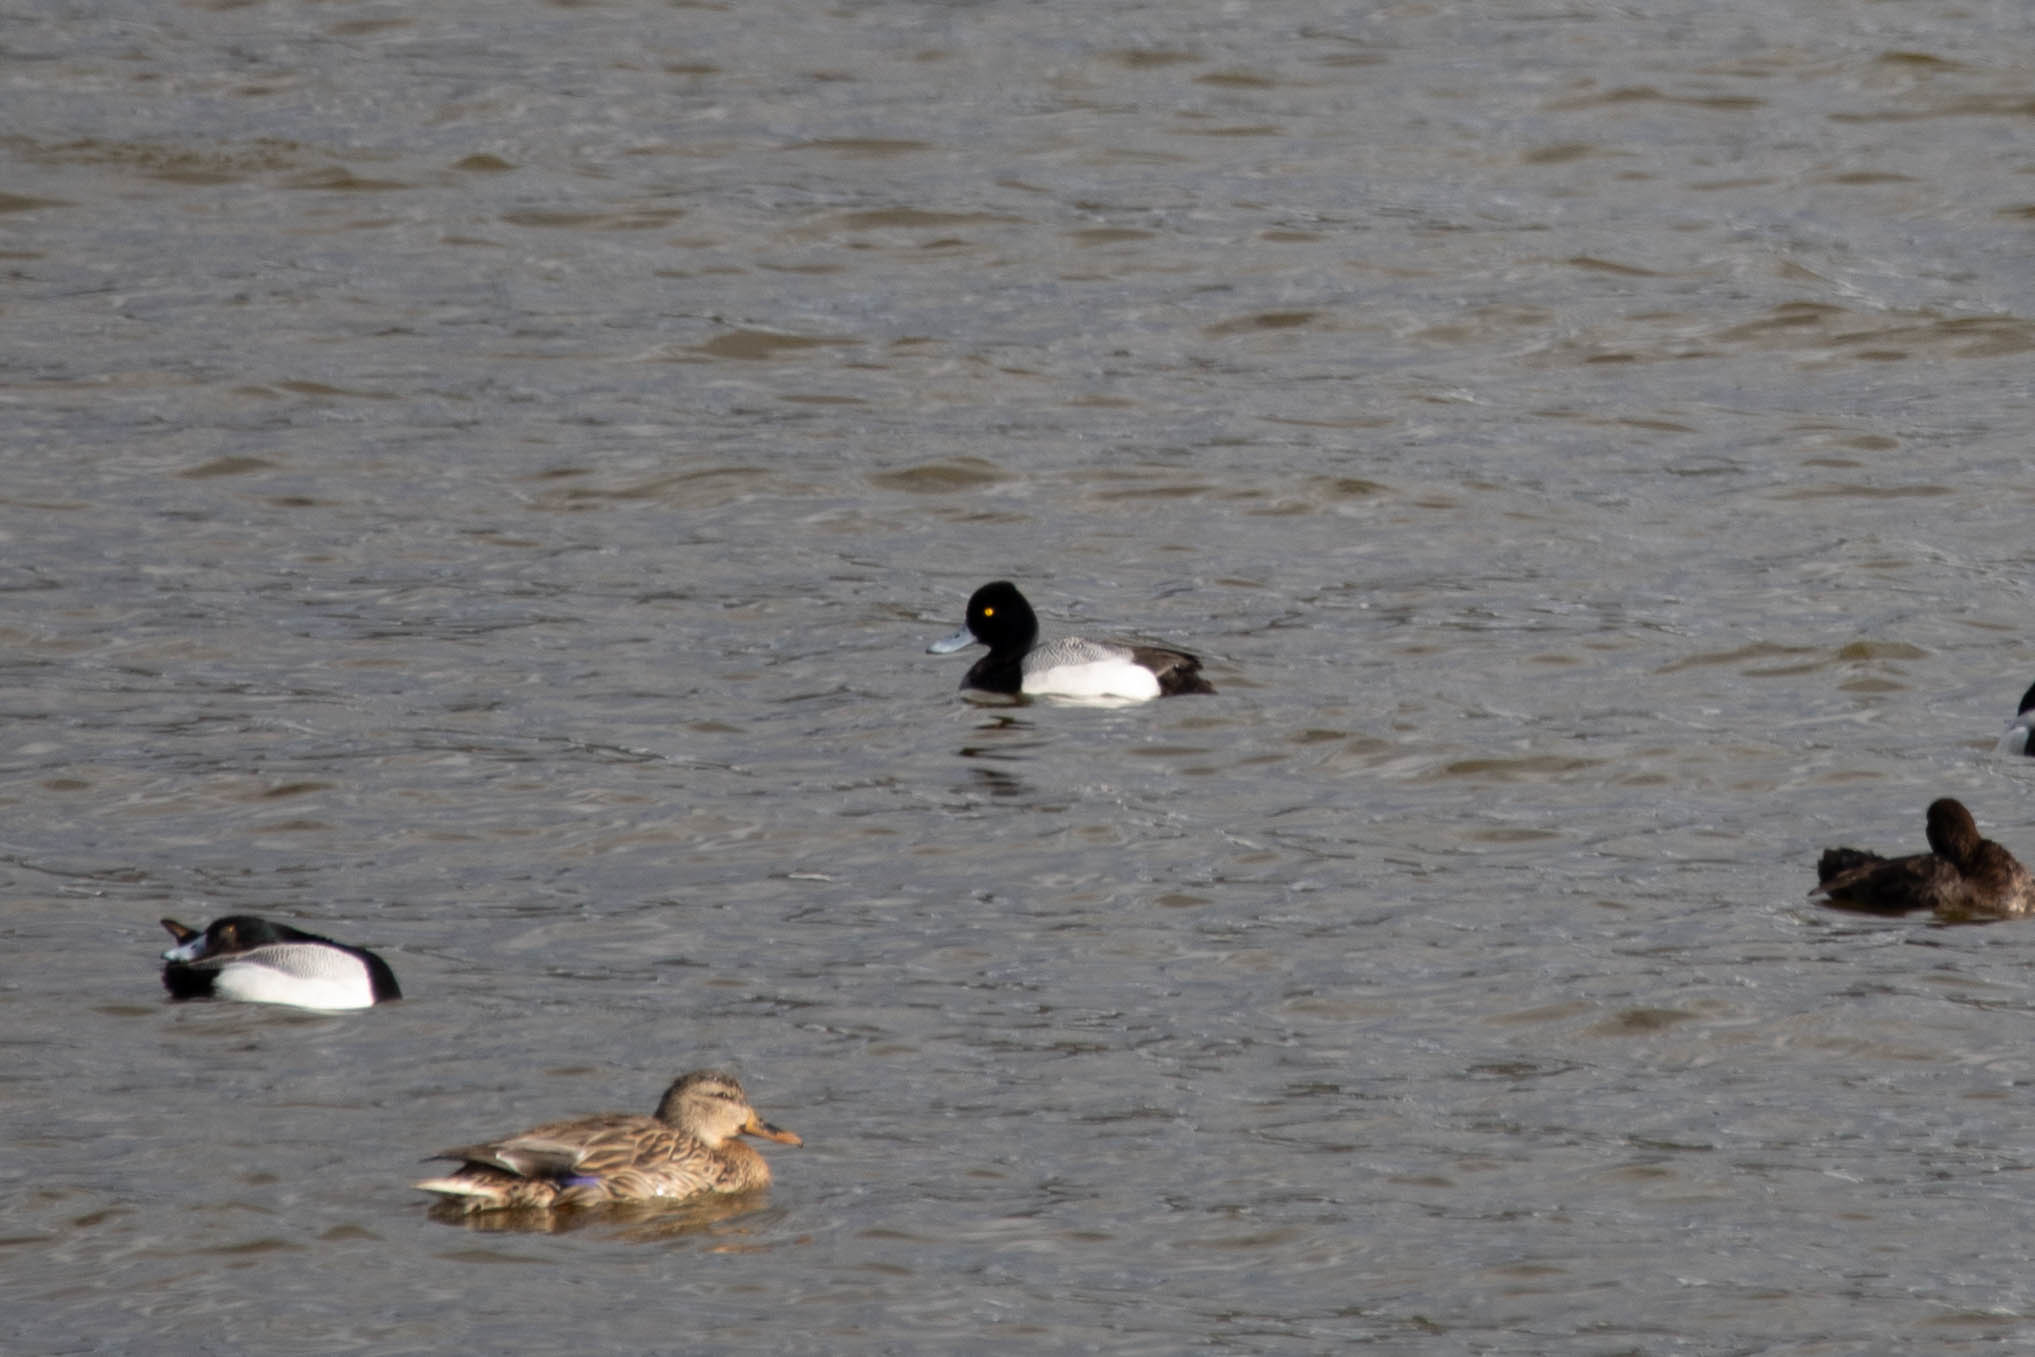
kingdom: Animalia
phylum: Chordata
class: Aves
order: Anseriformes
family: Anatidae
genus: Aythya
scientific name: Aythya affinis
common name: Lesser scaup
